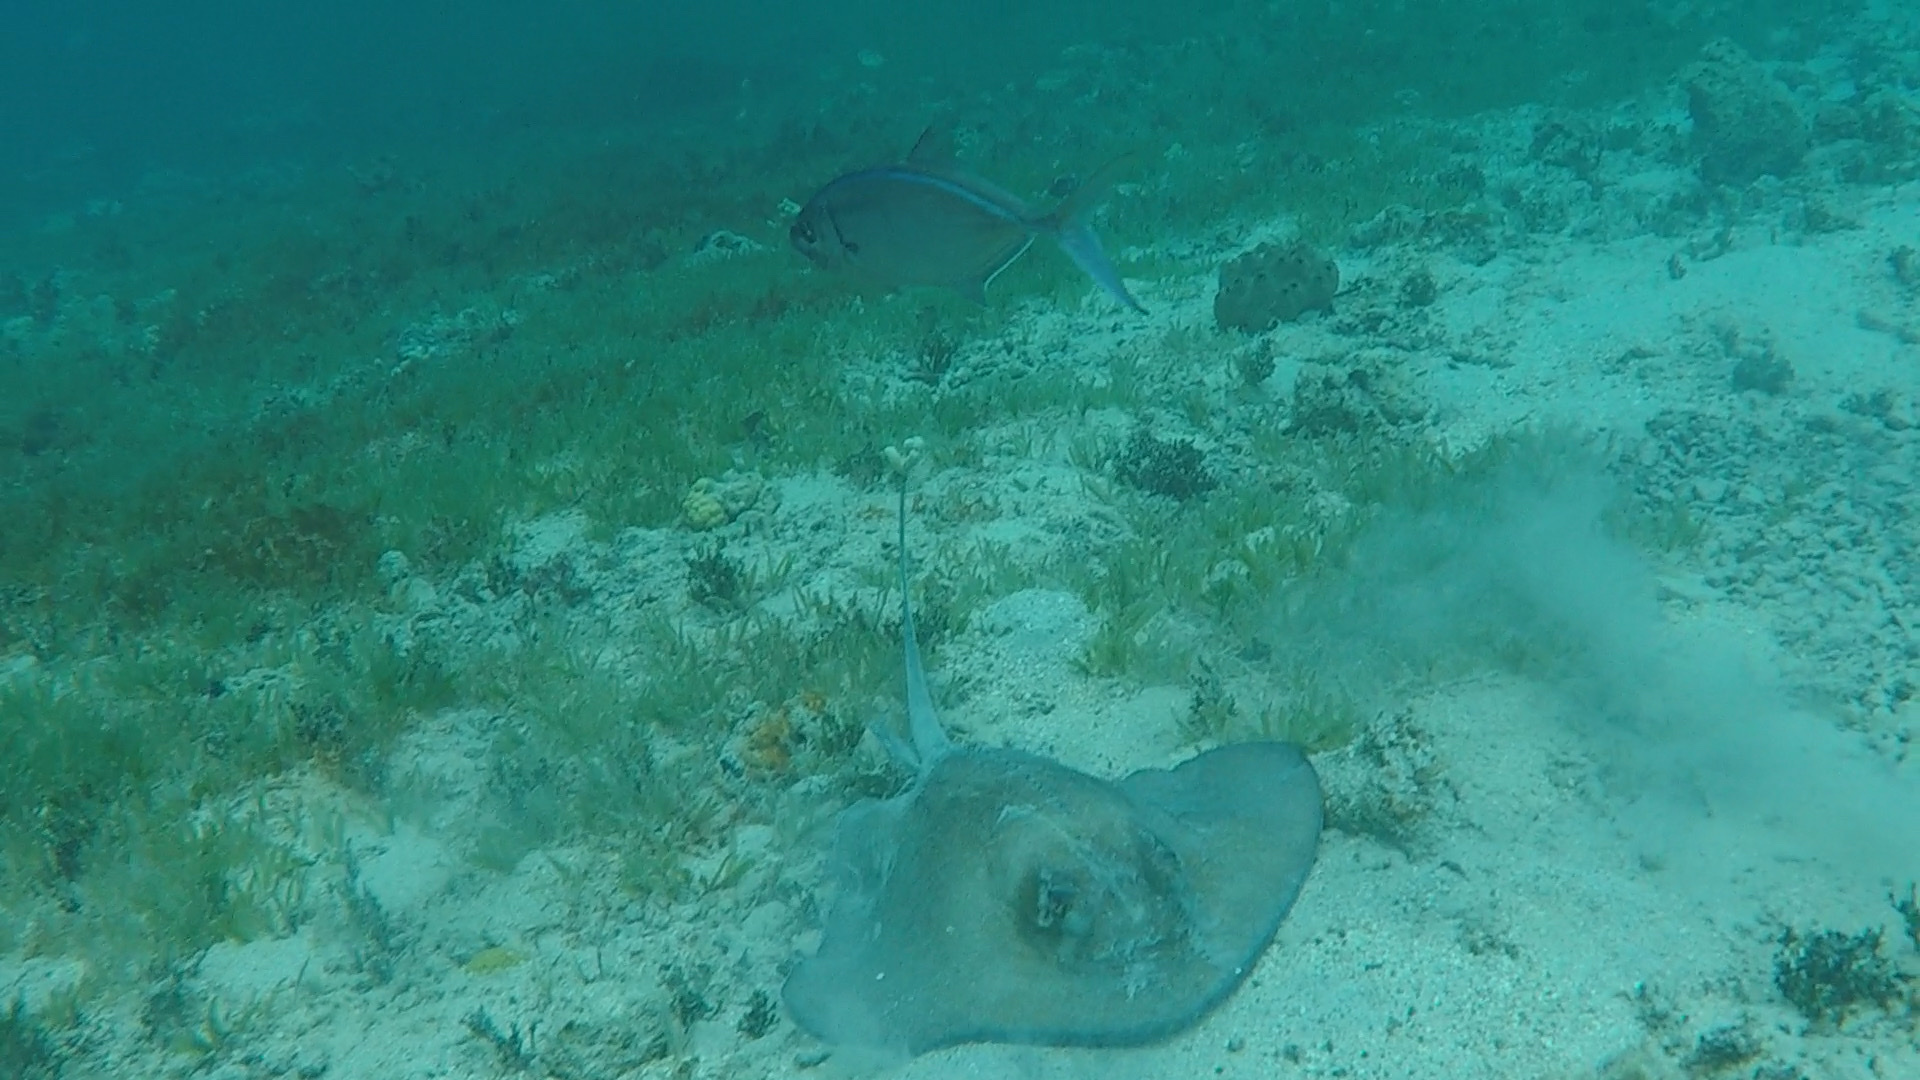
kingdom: Animalia
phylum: Chordata
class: Elasmobranchii
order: Myliobatiformes
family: Dasyatidae
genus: Hypanus
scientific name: Hypanus americanus
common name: Southern stingray
